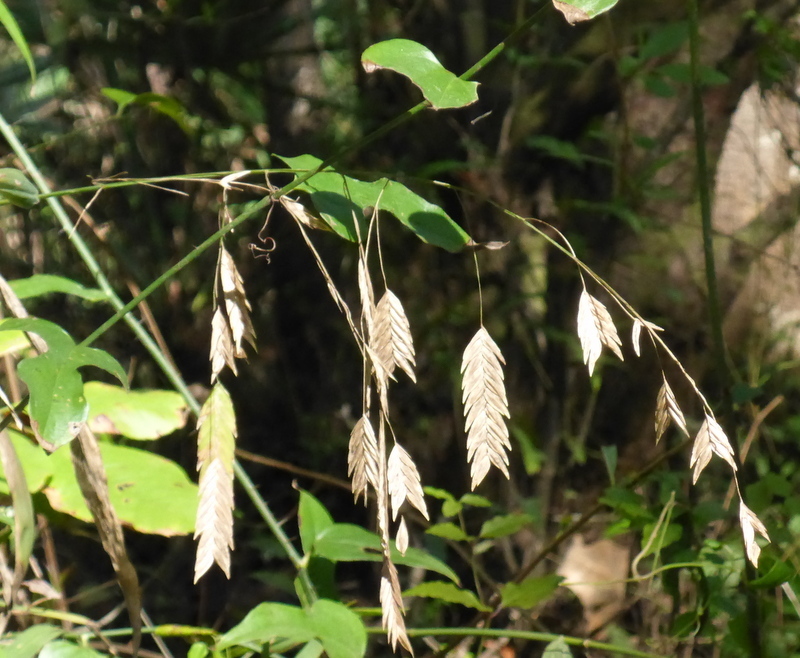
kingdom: Plantae
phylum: Tracheophyta
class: Liliopsida
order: Poales
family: Poaceae
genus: Chasmanthium
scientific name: Chasmanthium latifolium
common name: Broad-leaved chasmanthium
